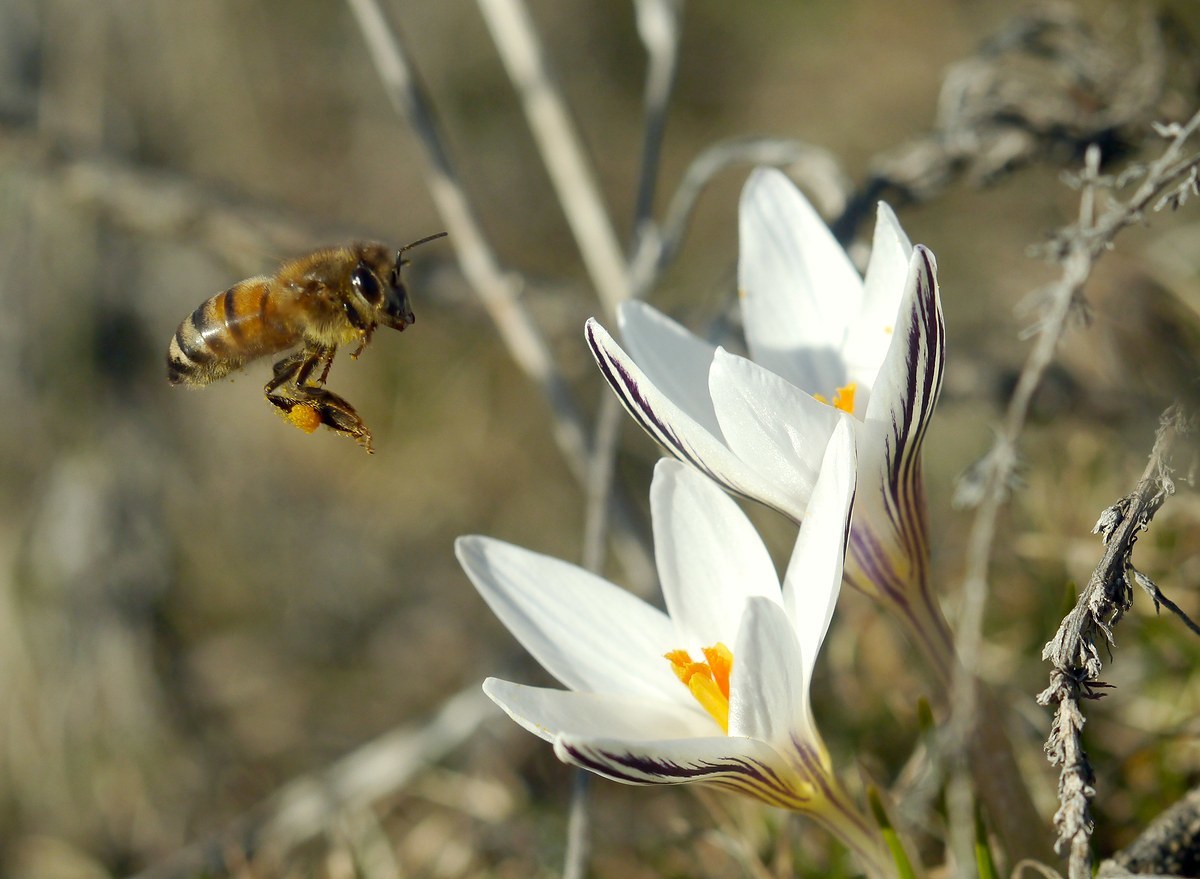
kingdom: Animalia
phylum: Arthropoda
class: Insecta
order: Hymenoptera
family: Apidae
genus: Apis
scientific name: Apis mellifera
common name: Honey bee
